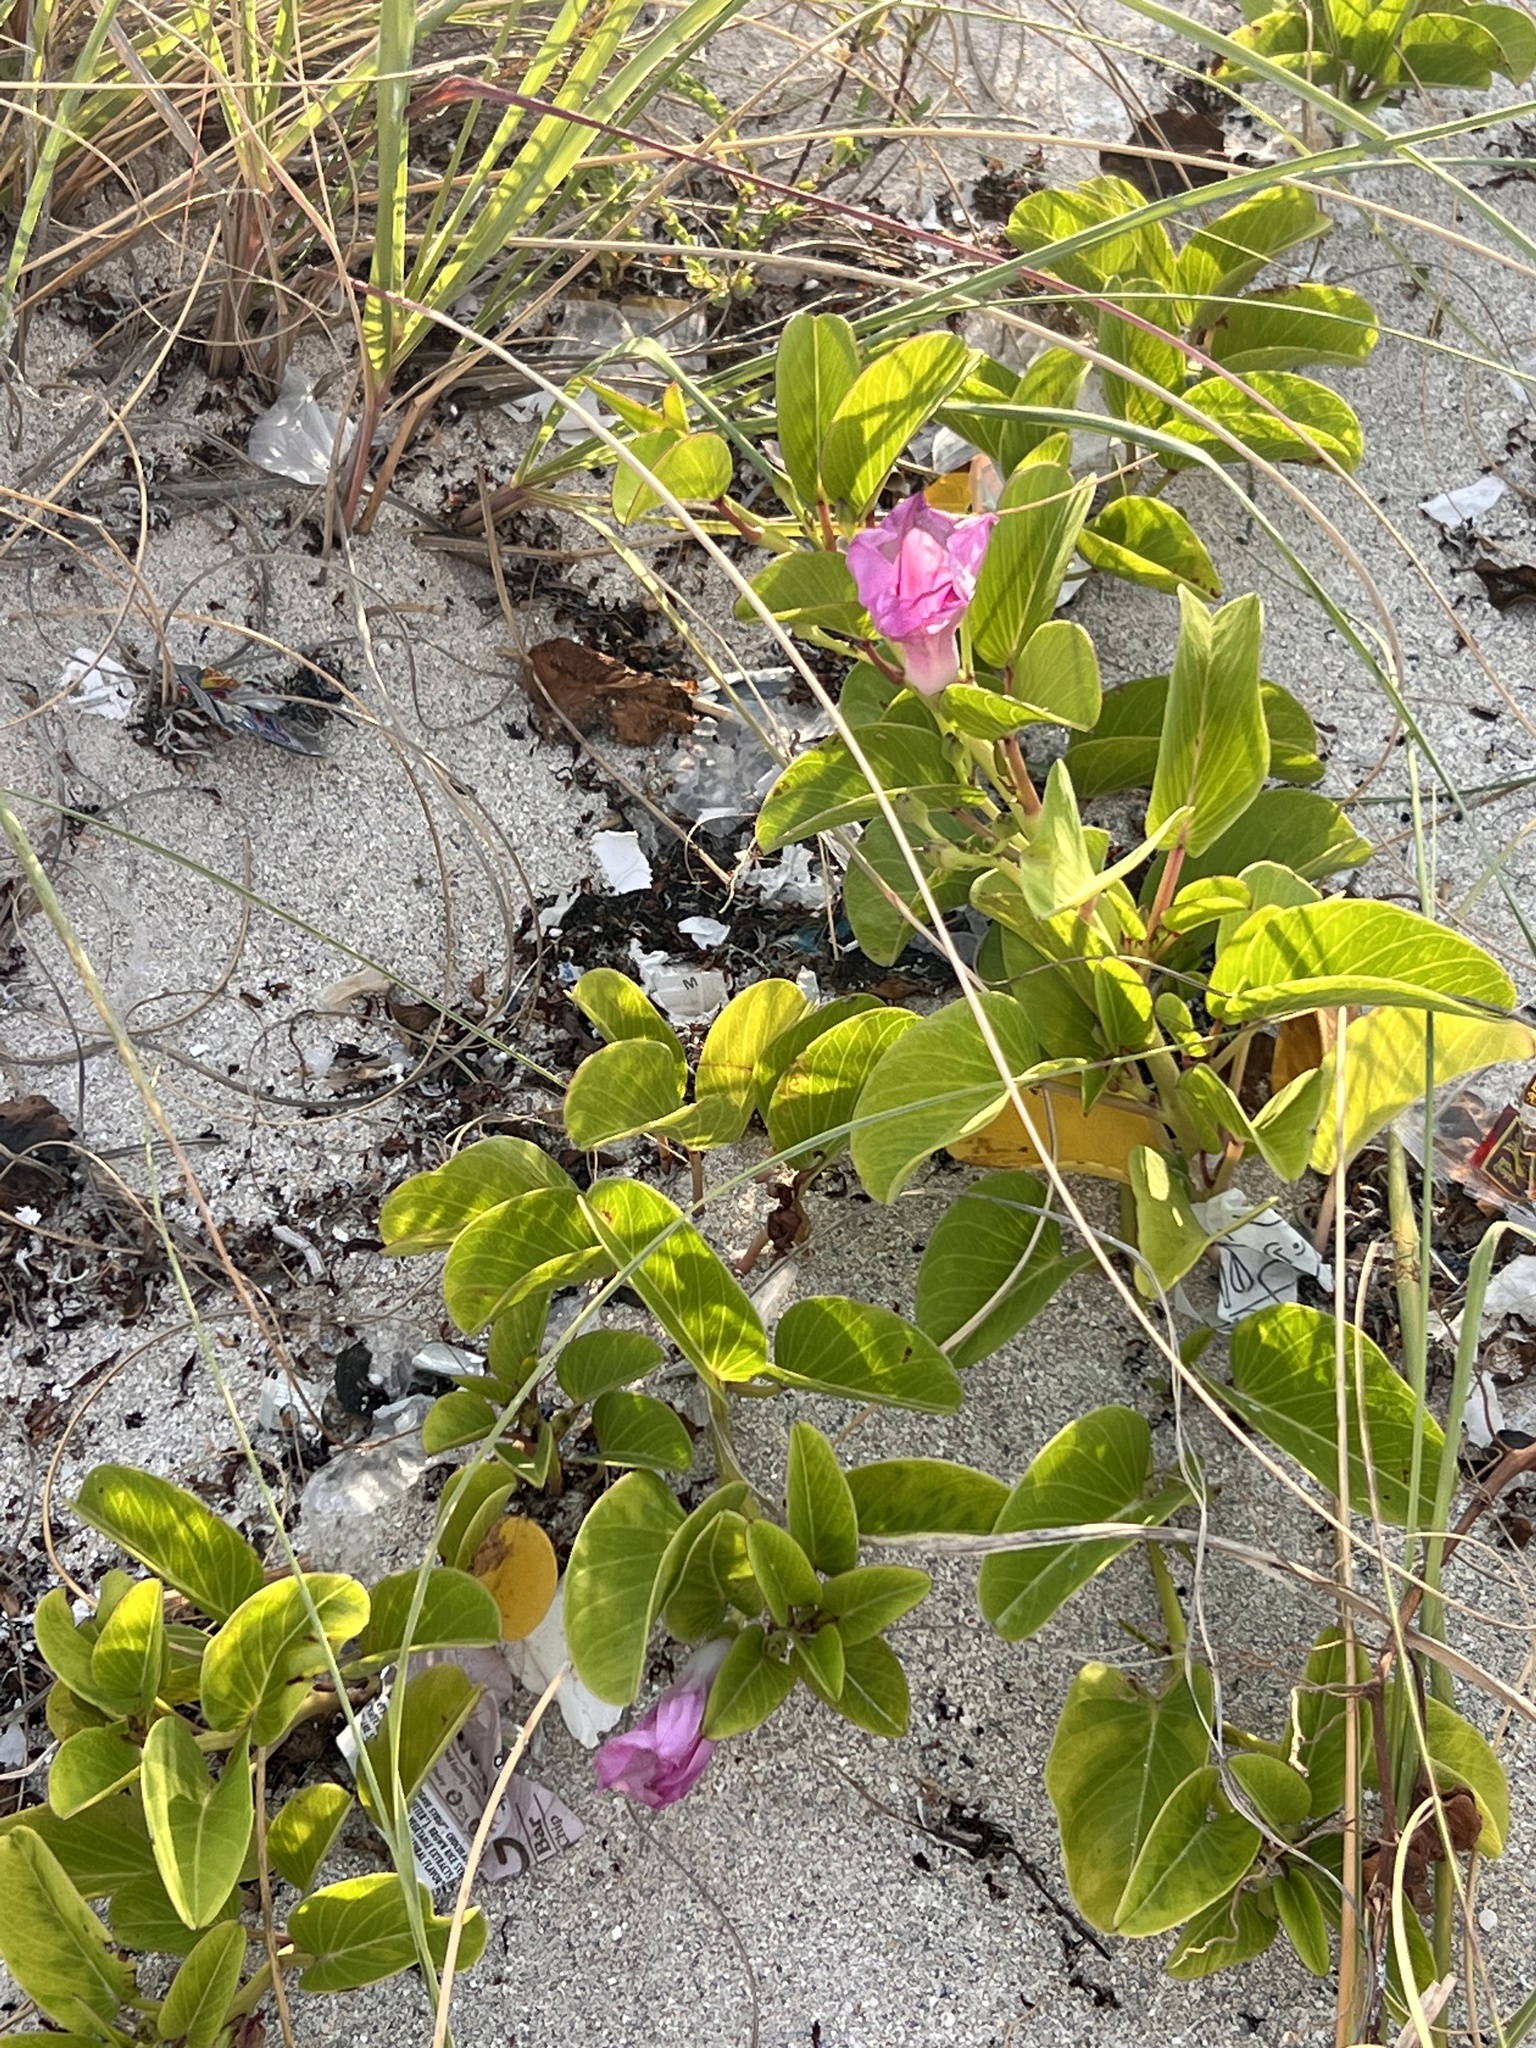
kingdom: Plantae
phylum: Tracheophyta
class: Magnoliopsida
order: Solanales
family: Convolvulaceae
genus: Ipomoea
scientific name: Ipomoea pes-caprae
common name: Beach morning glory
